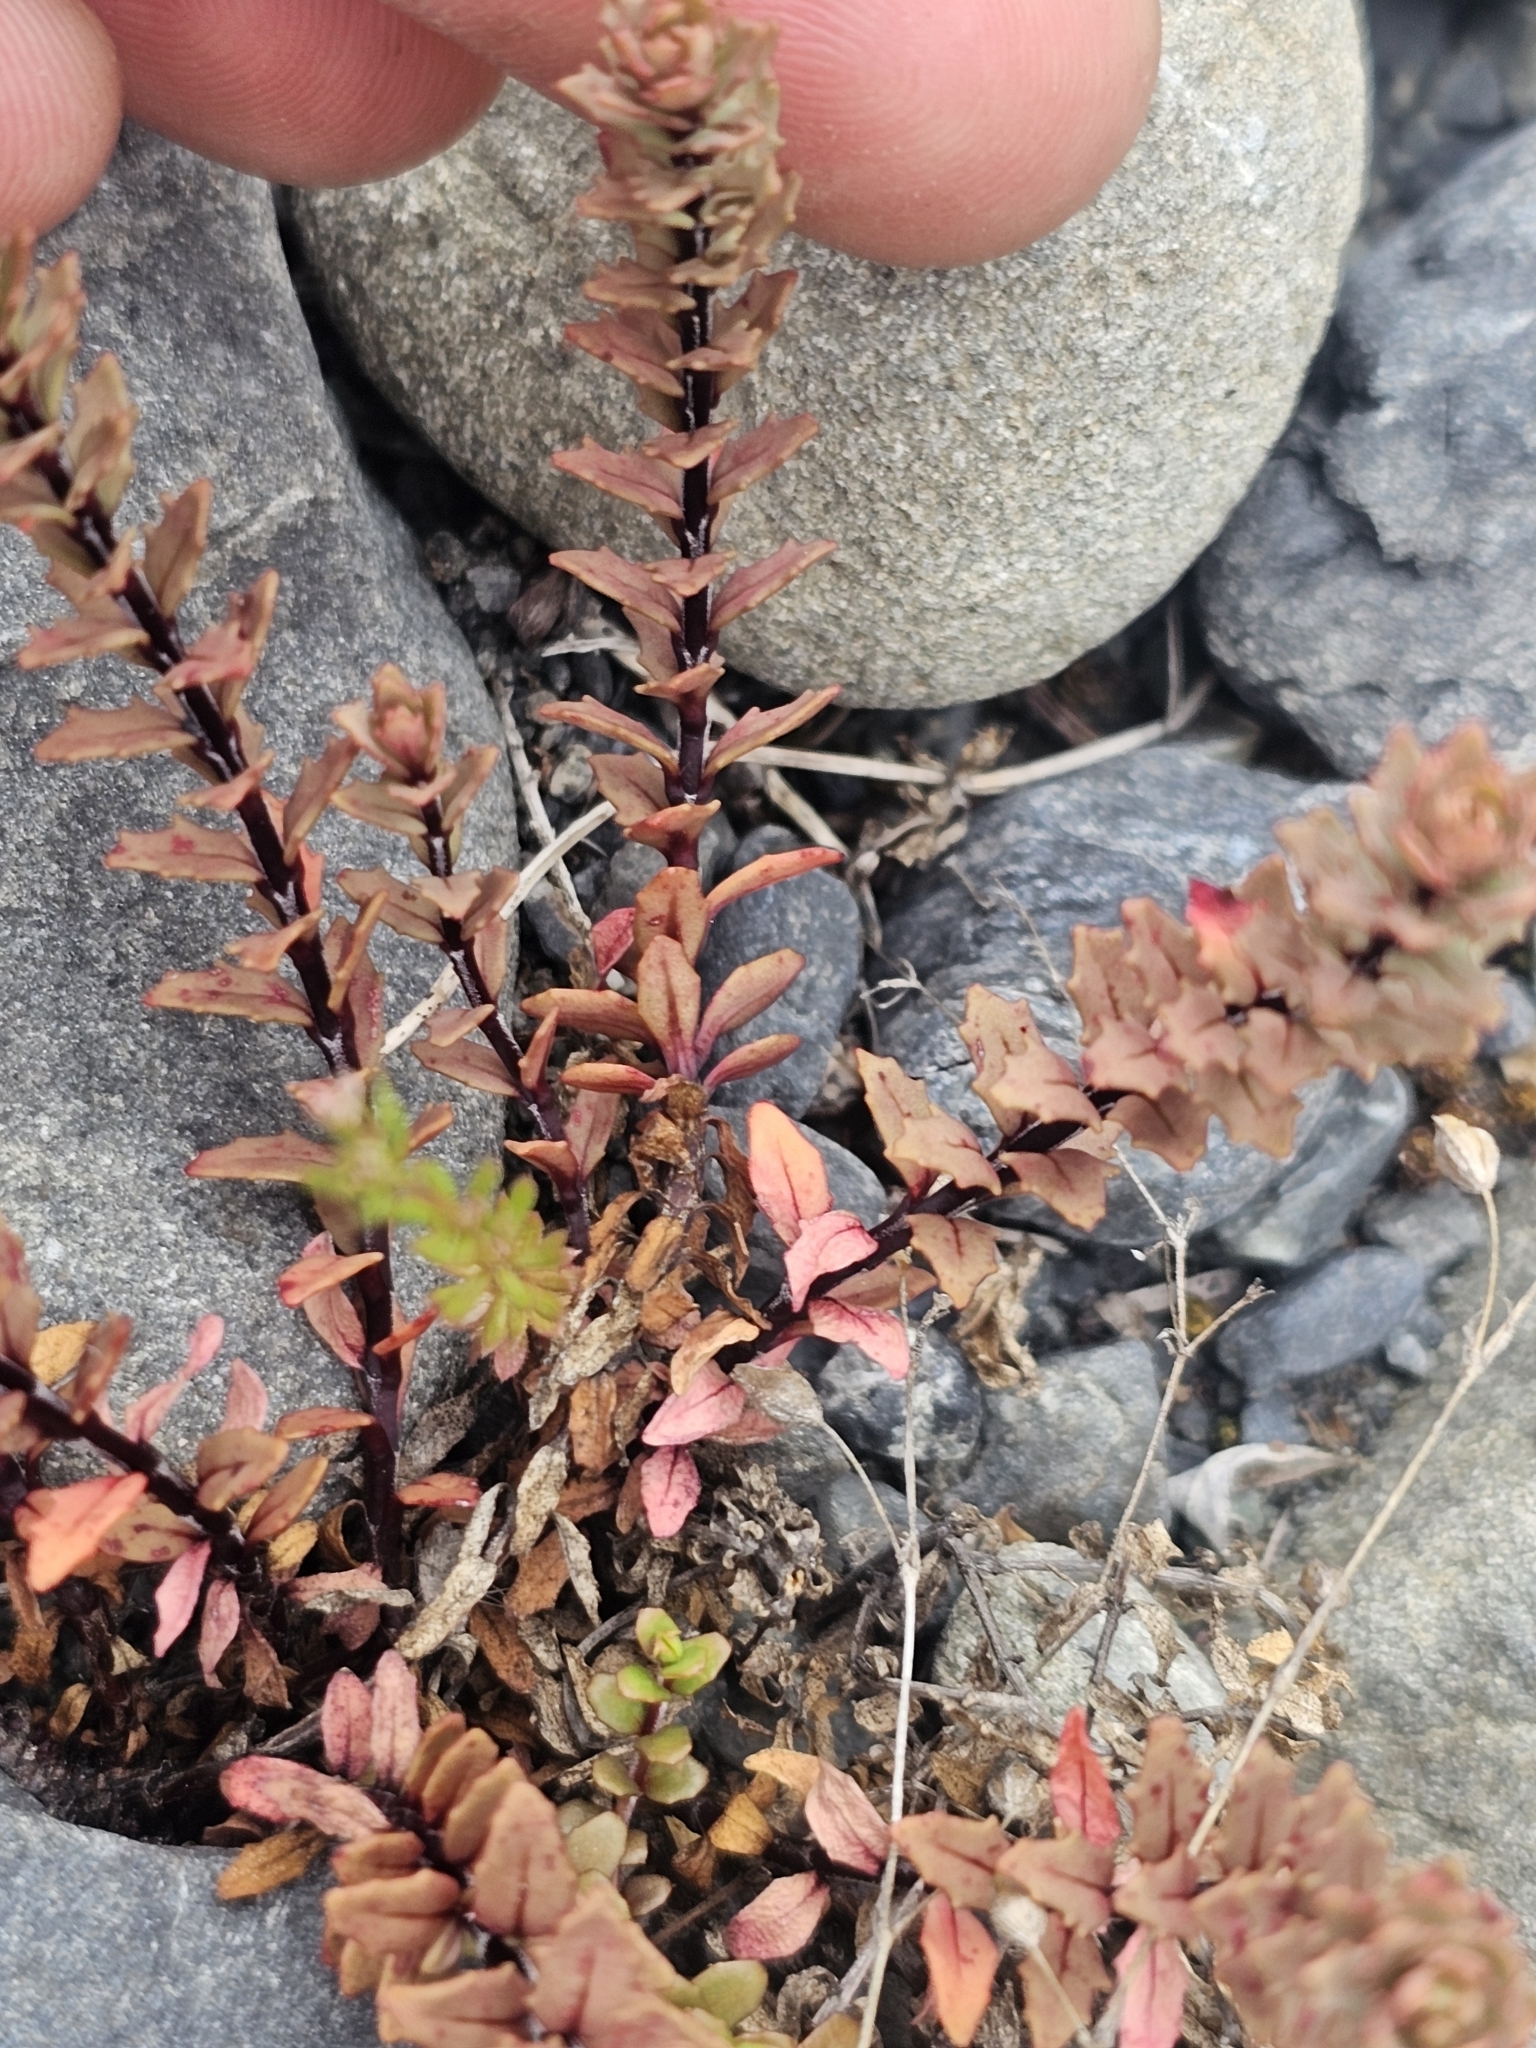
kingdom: Plantae
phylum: Tracheophyta
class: Magnoliopsida
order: Myrtales
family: Onagraceae
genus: Epilobium
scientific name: Epilobium melanocaulon
